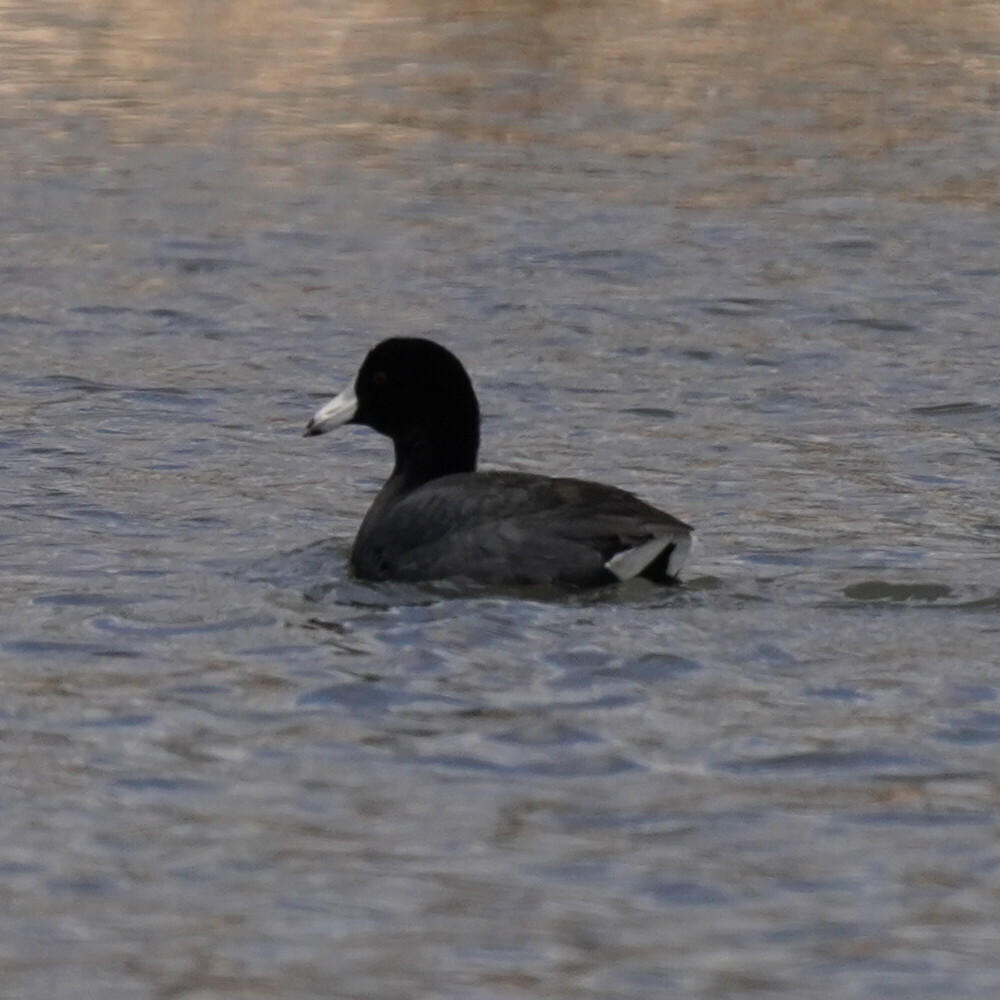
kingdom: Animalia
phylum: Chordata
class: Aves
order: Gruiformes
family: Rallidae
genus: Fulica
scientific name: Fulica americana
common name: American coot
